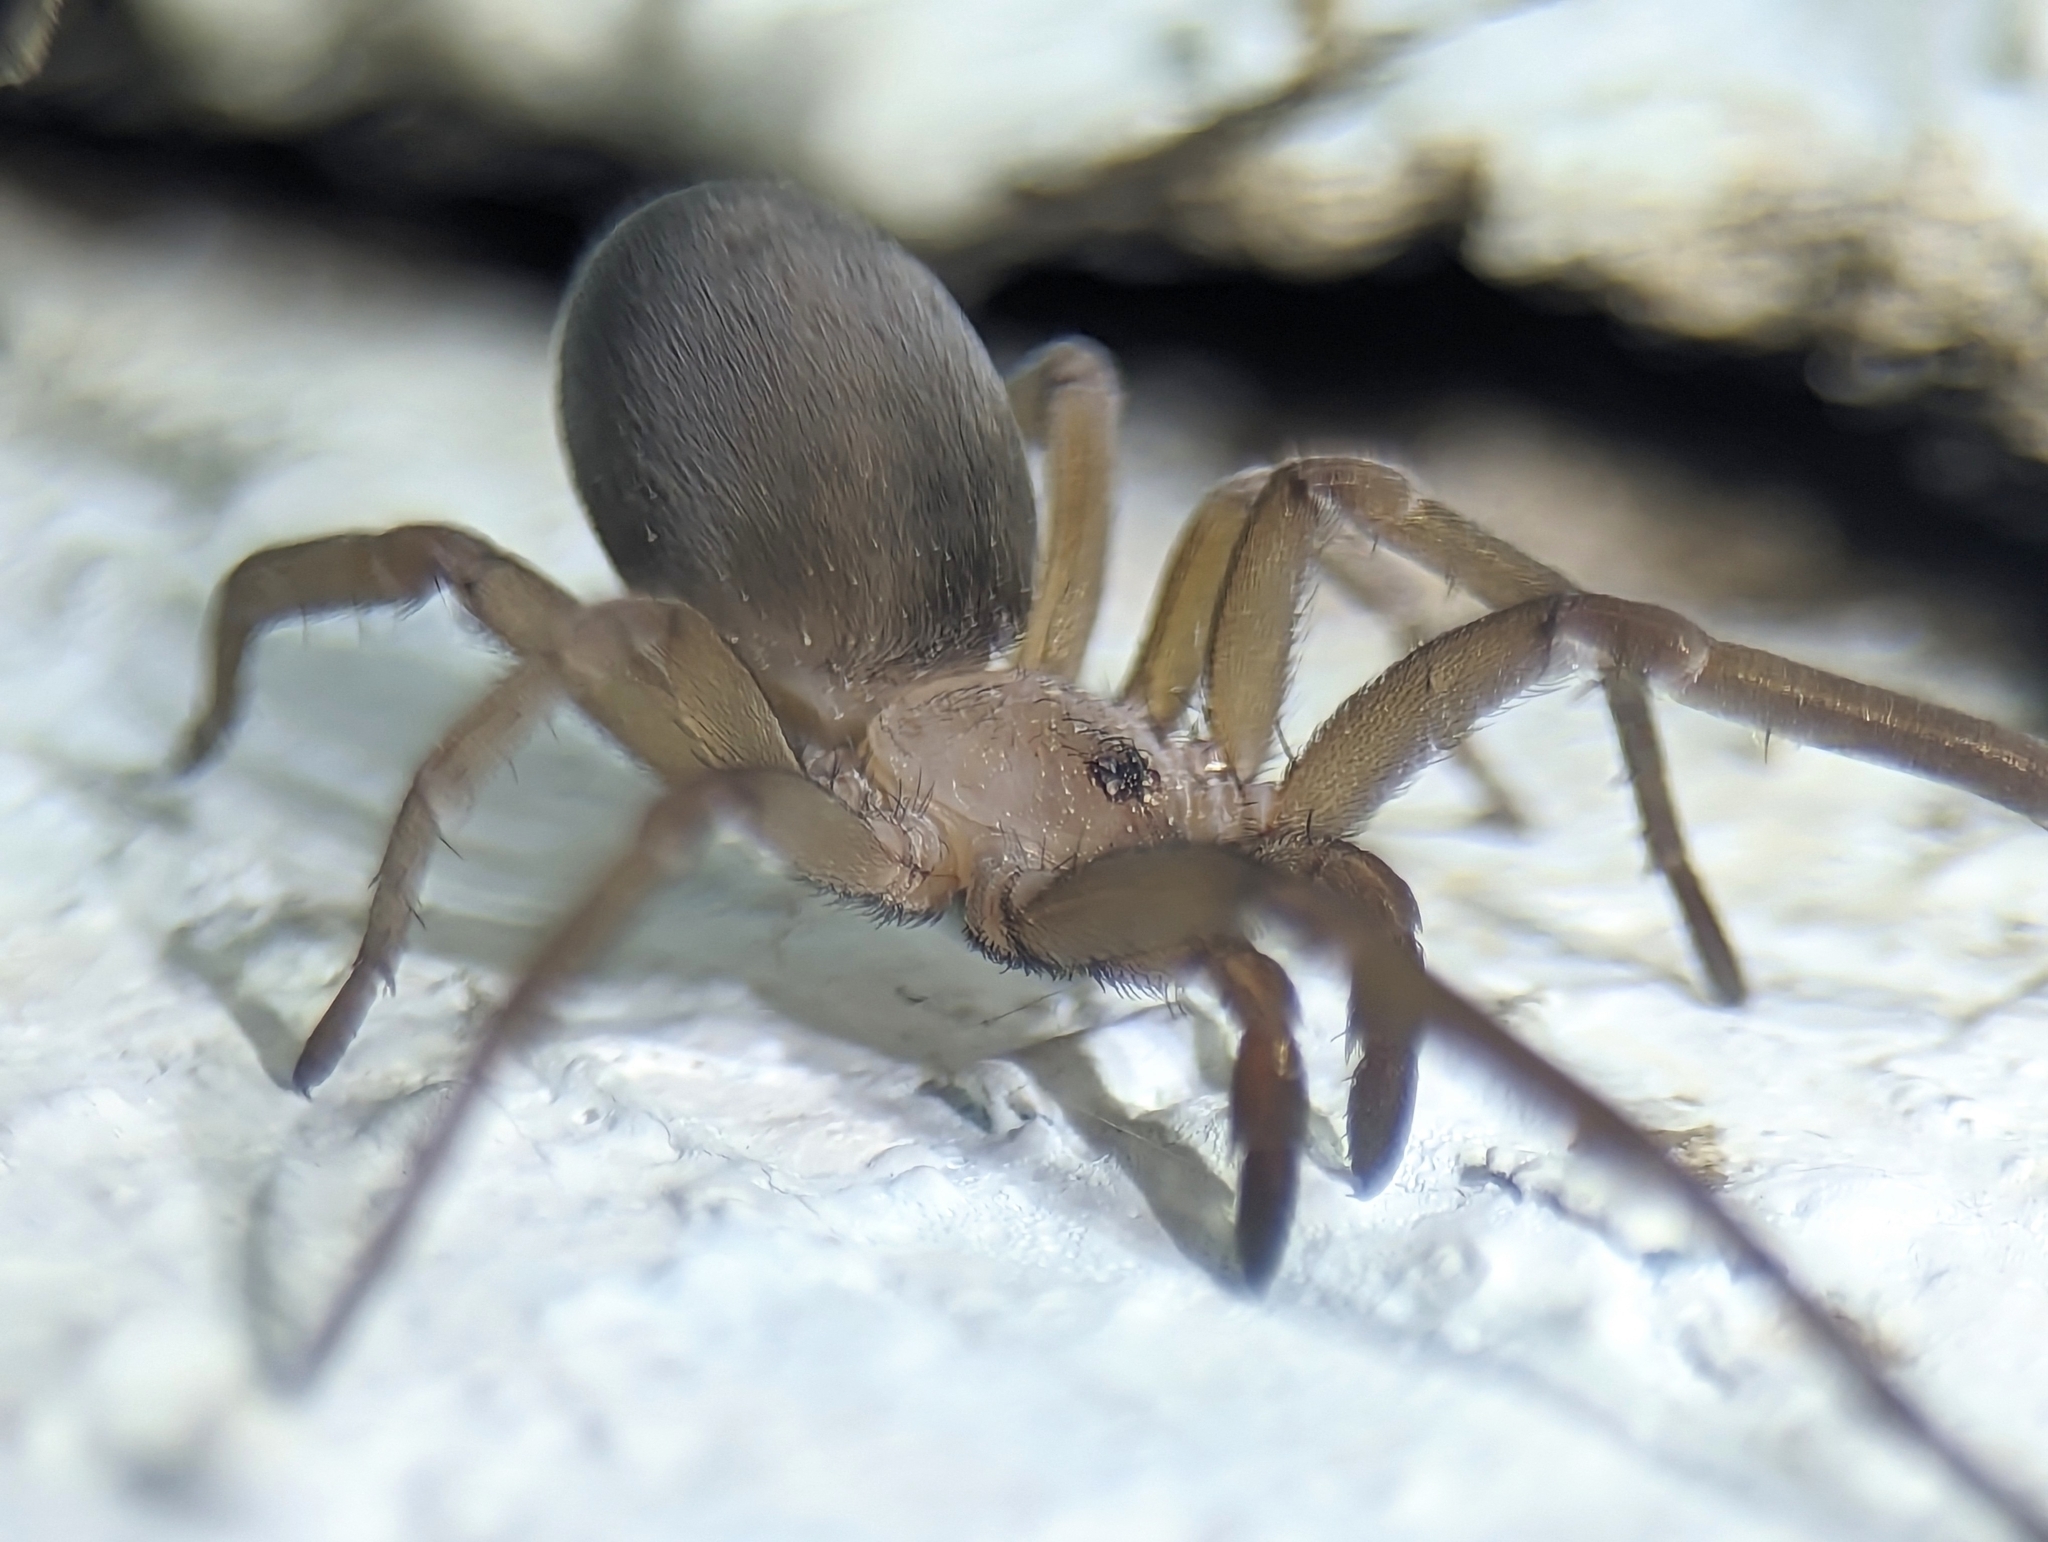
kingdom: Animalia
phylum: Arthropoda
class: Arachnida
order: Araneae
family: Filistatidae
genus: Filistata
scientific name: Filistata insidiatrix
